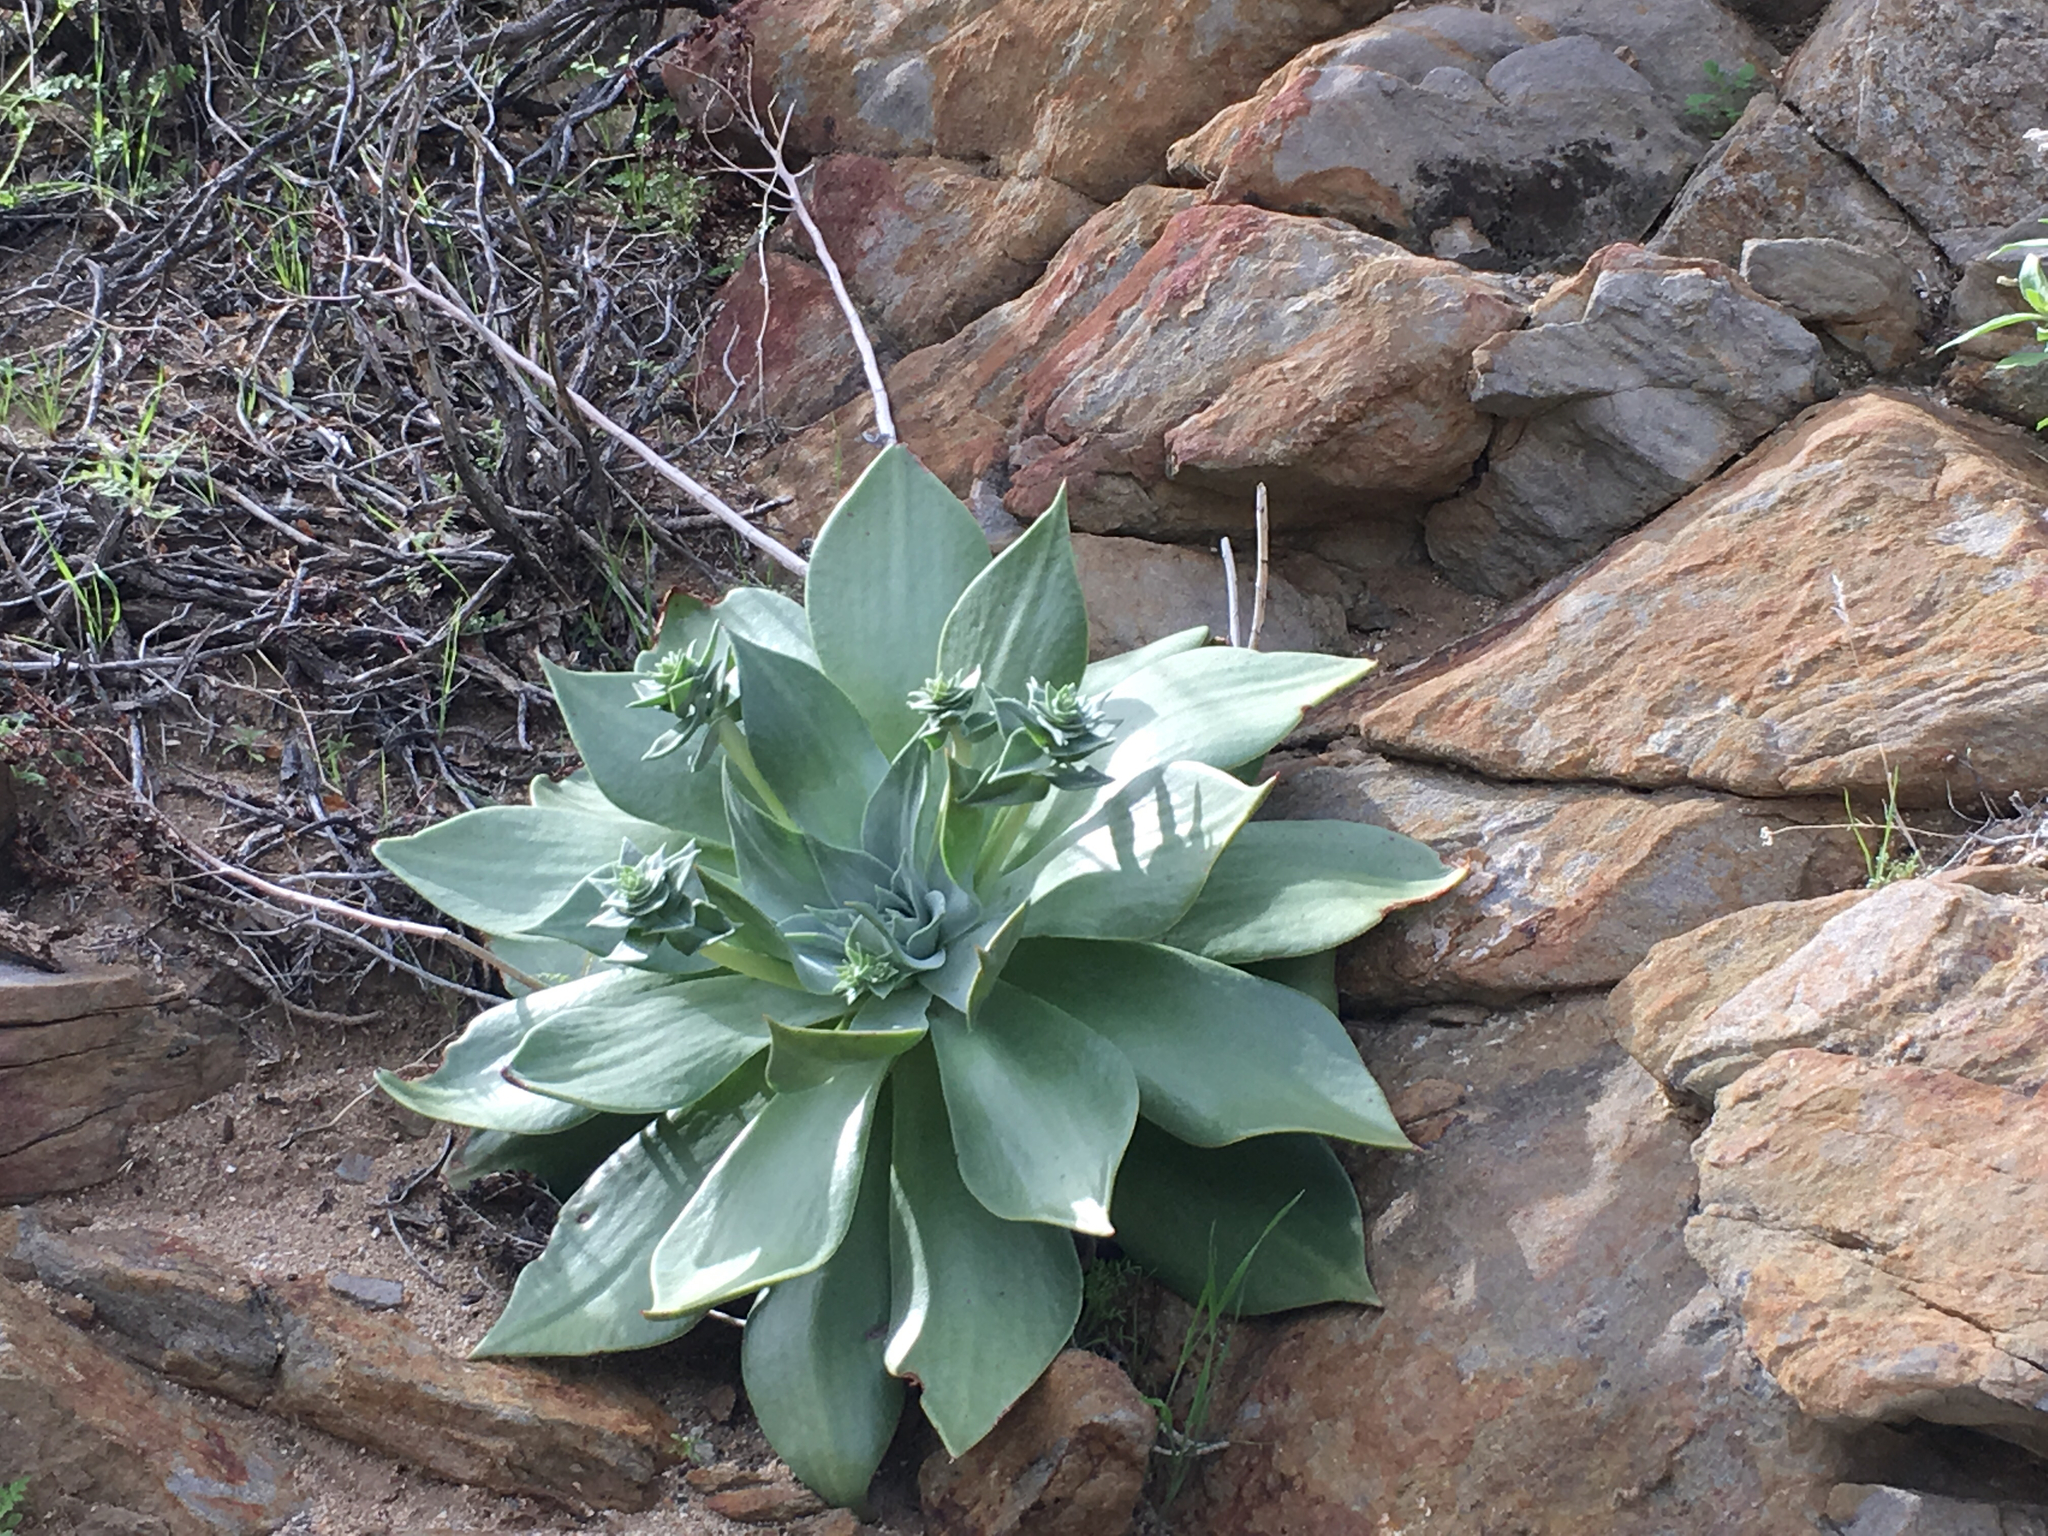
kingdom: Plantae
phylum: Tracheophyta
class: Magnoliopsida
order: Saxifragales
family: Crassulaceae
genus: Dudleya
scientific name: Dudleya arizonica
